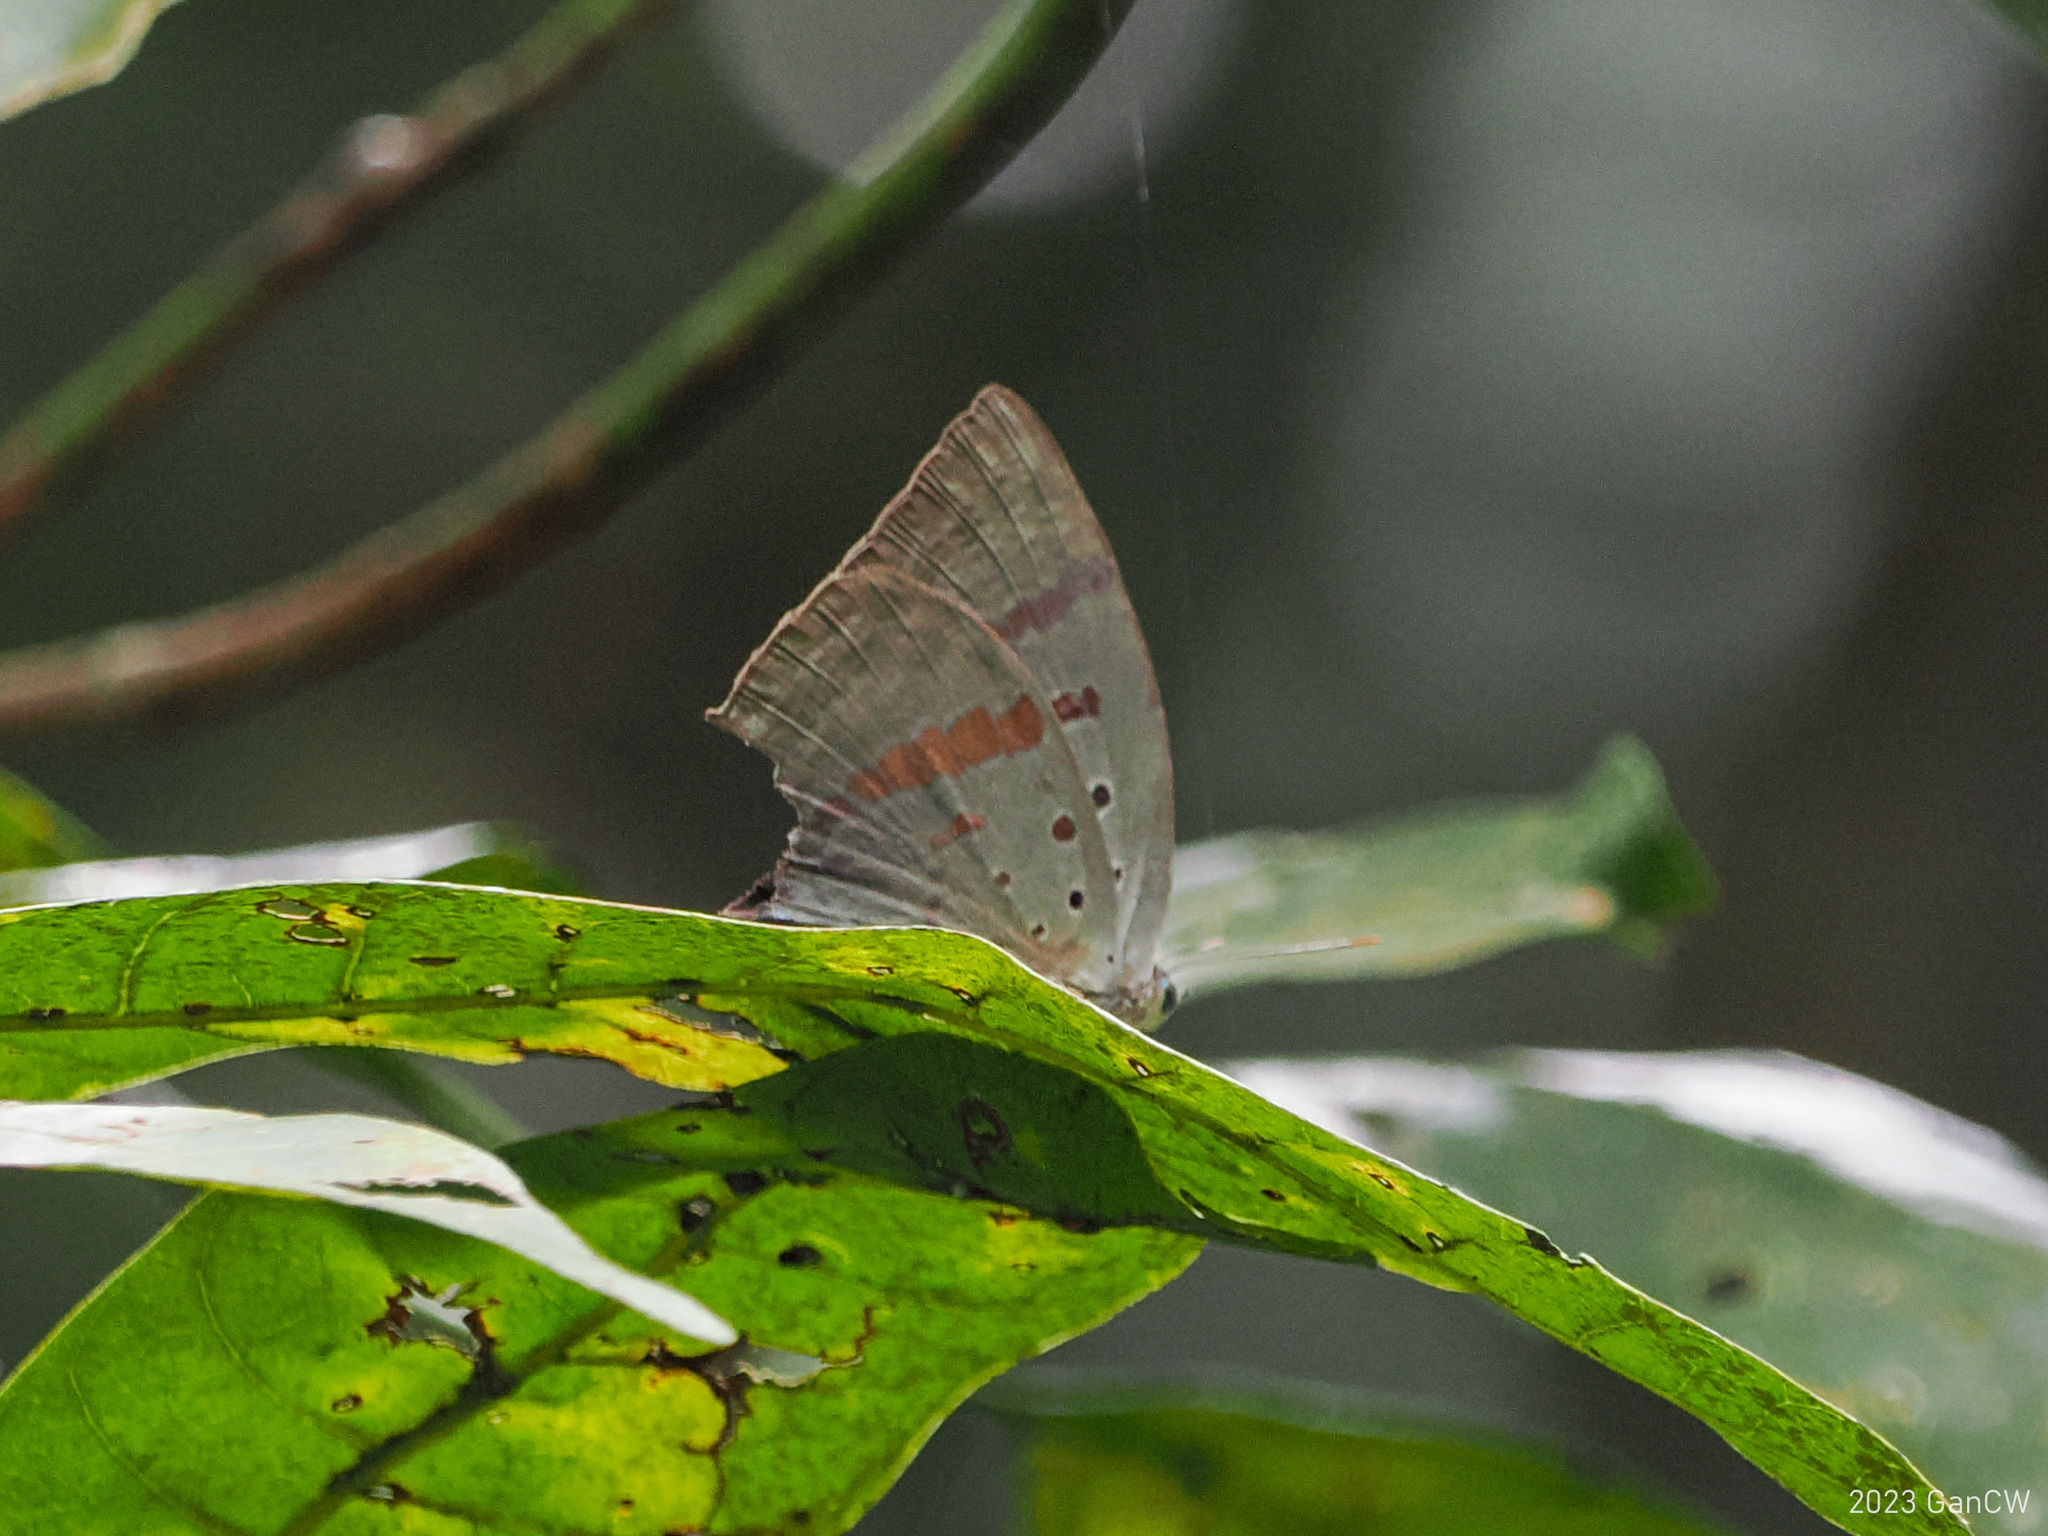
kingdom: Animalia
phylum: Arthropoda
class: Insecta
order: Lepidoptera
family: Lycaenidae
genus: Arhopala
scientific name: Arhopala hercules
